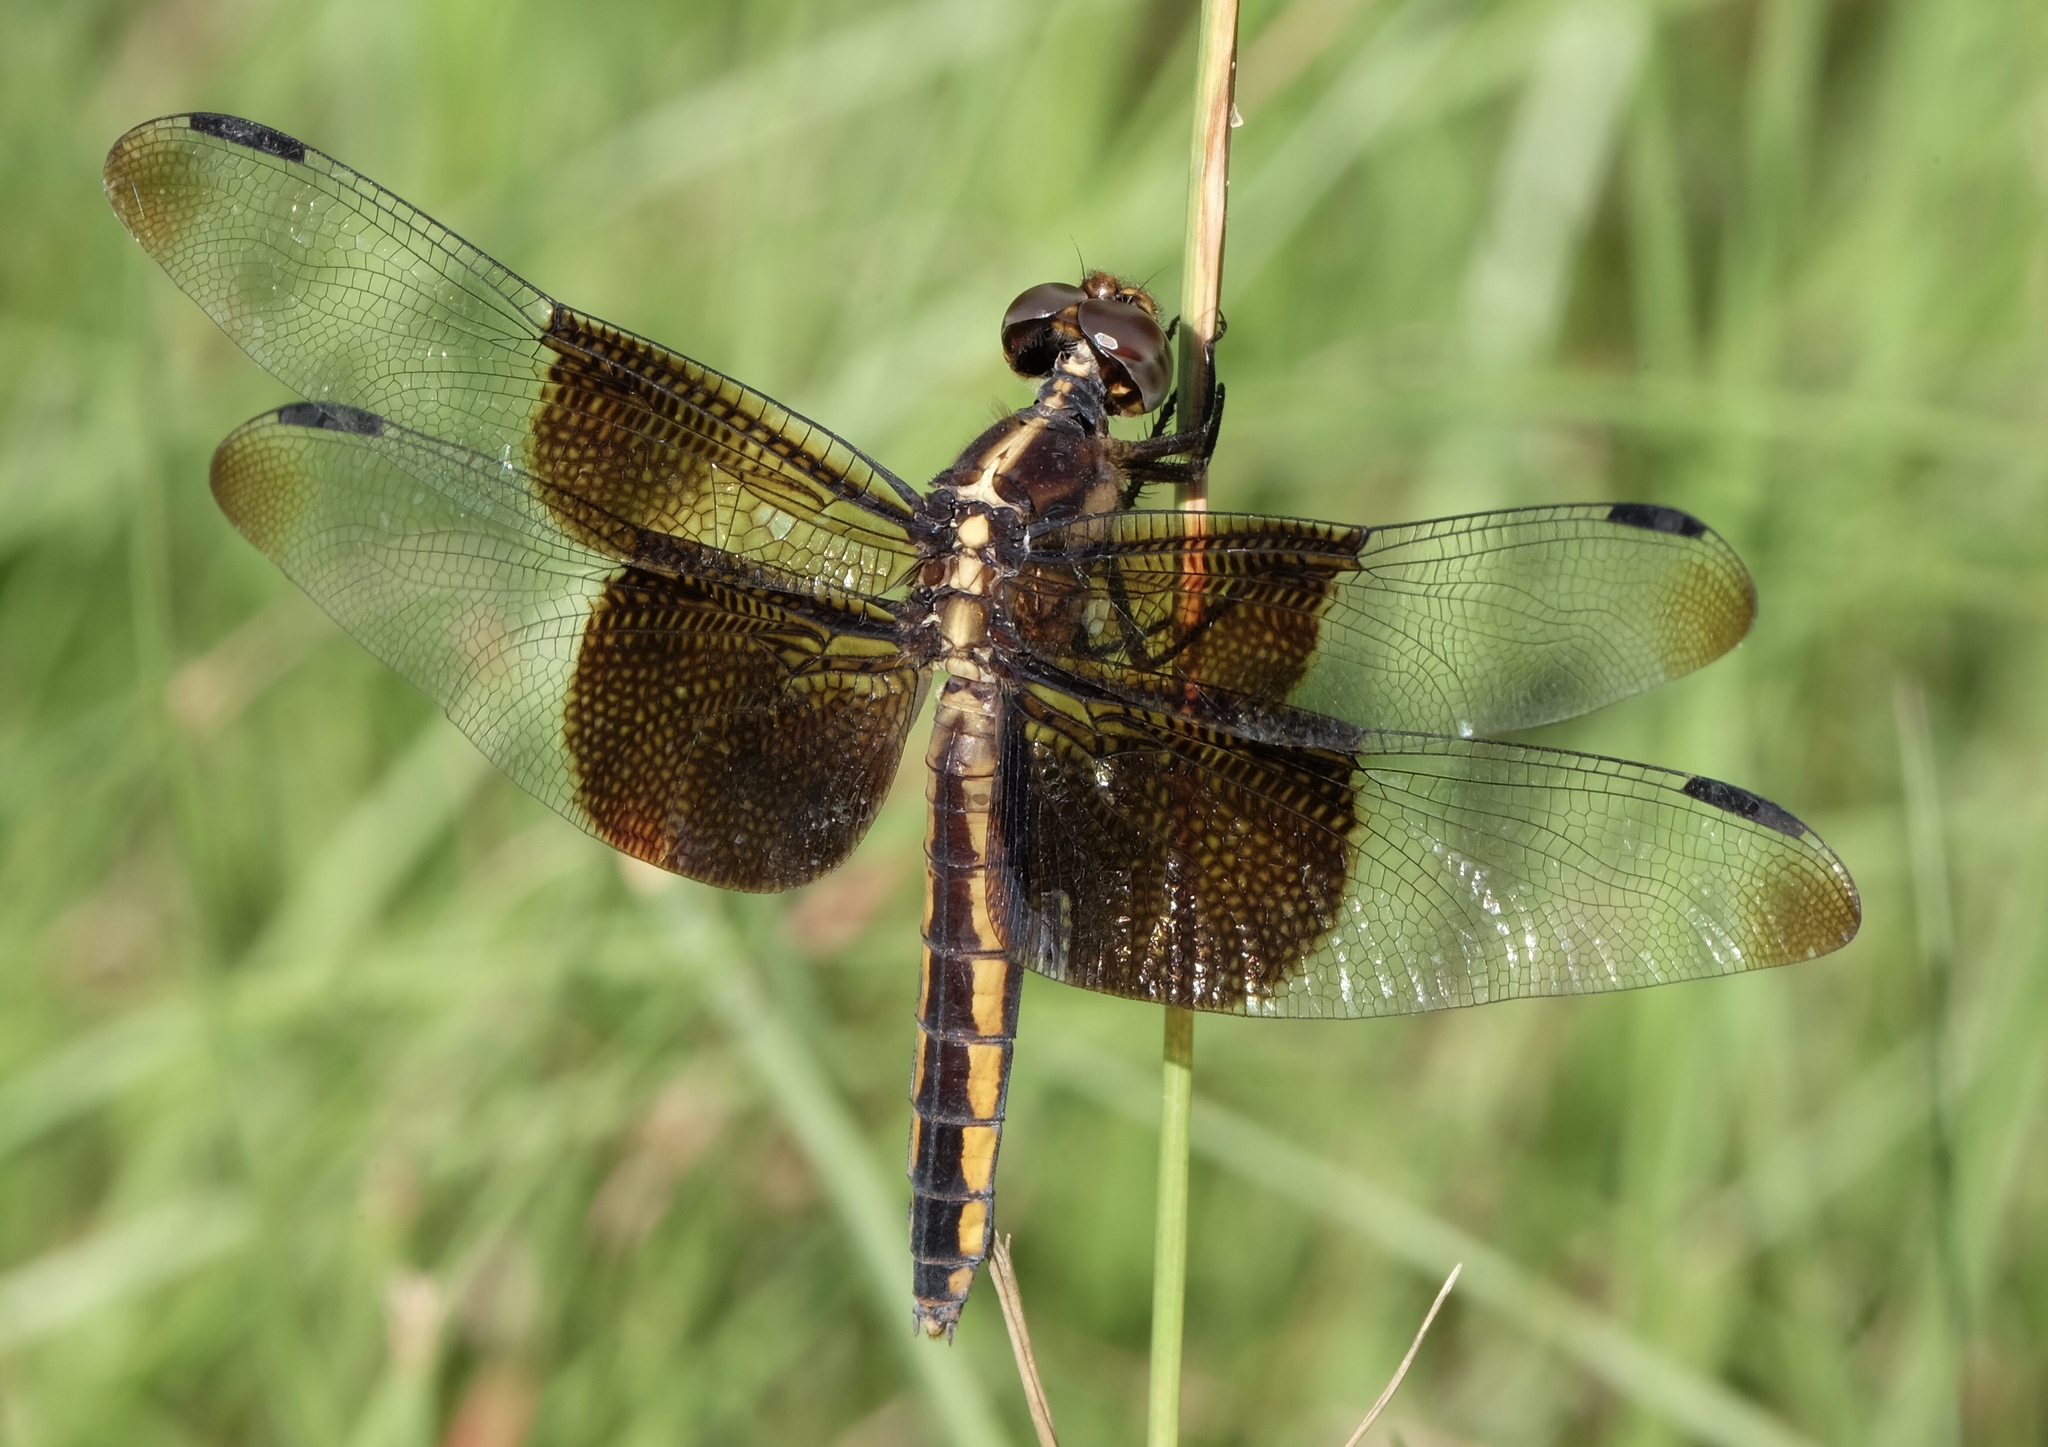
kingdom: Animalia
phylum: Arthropoda
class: Insecta
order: Odonata
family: Libellulidae
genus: Libellula
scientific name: Libellula luctuosa
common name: Widow skimmer
